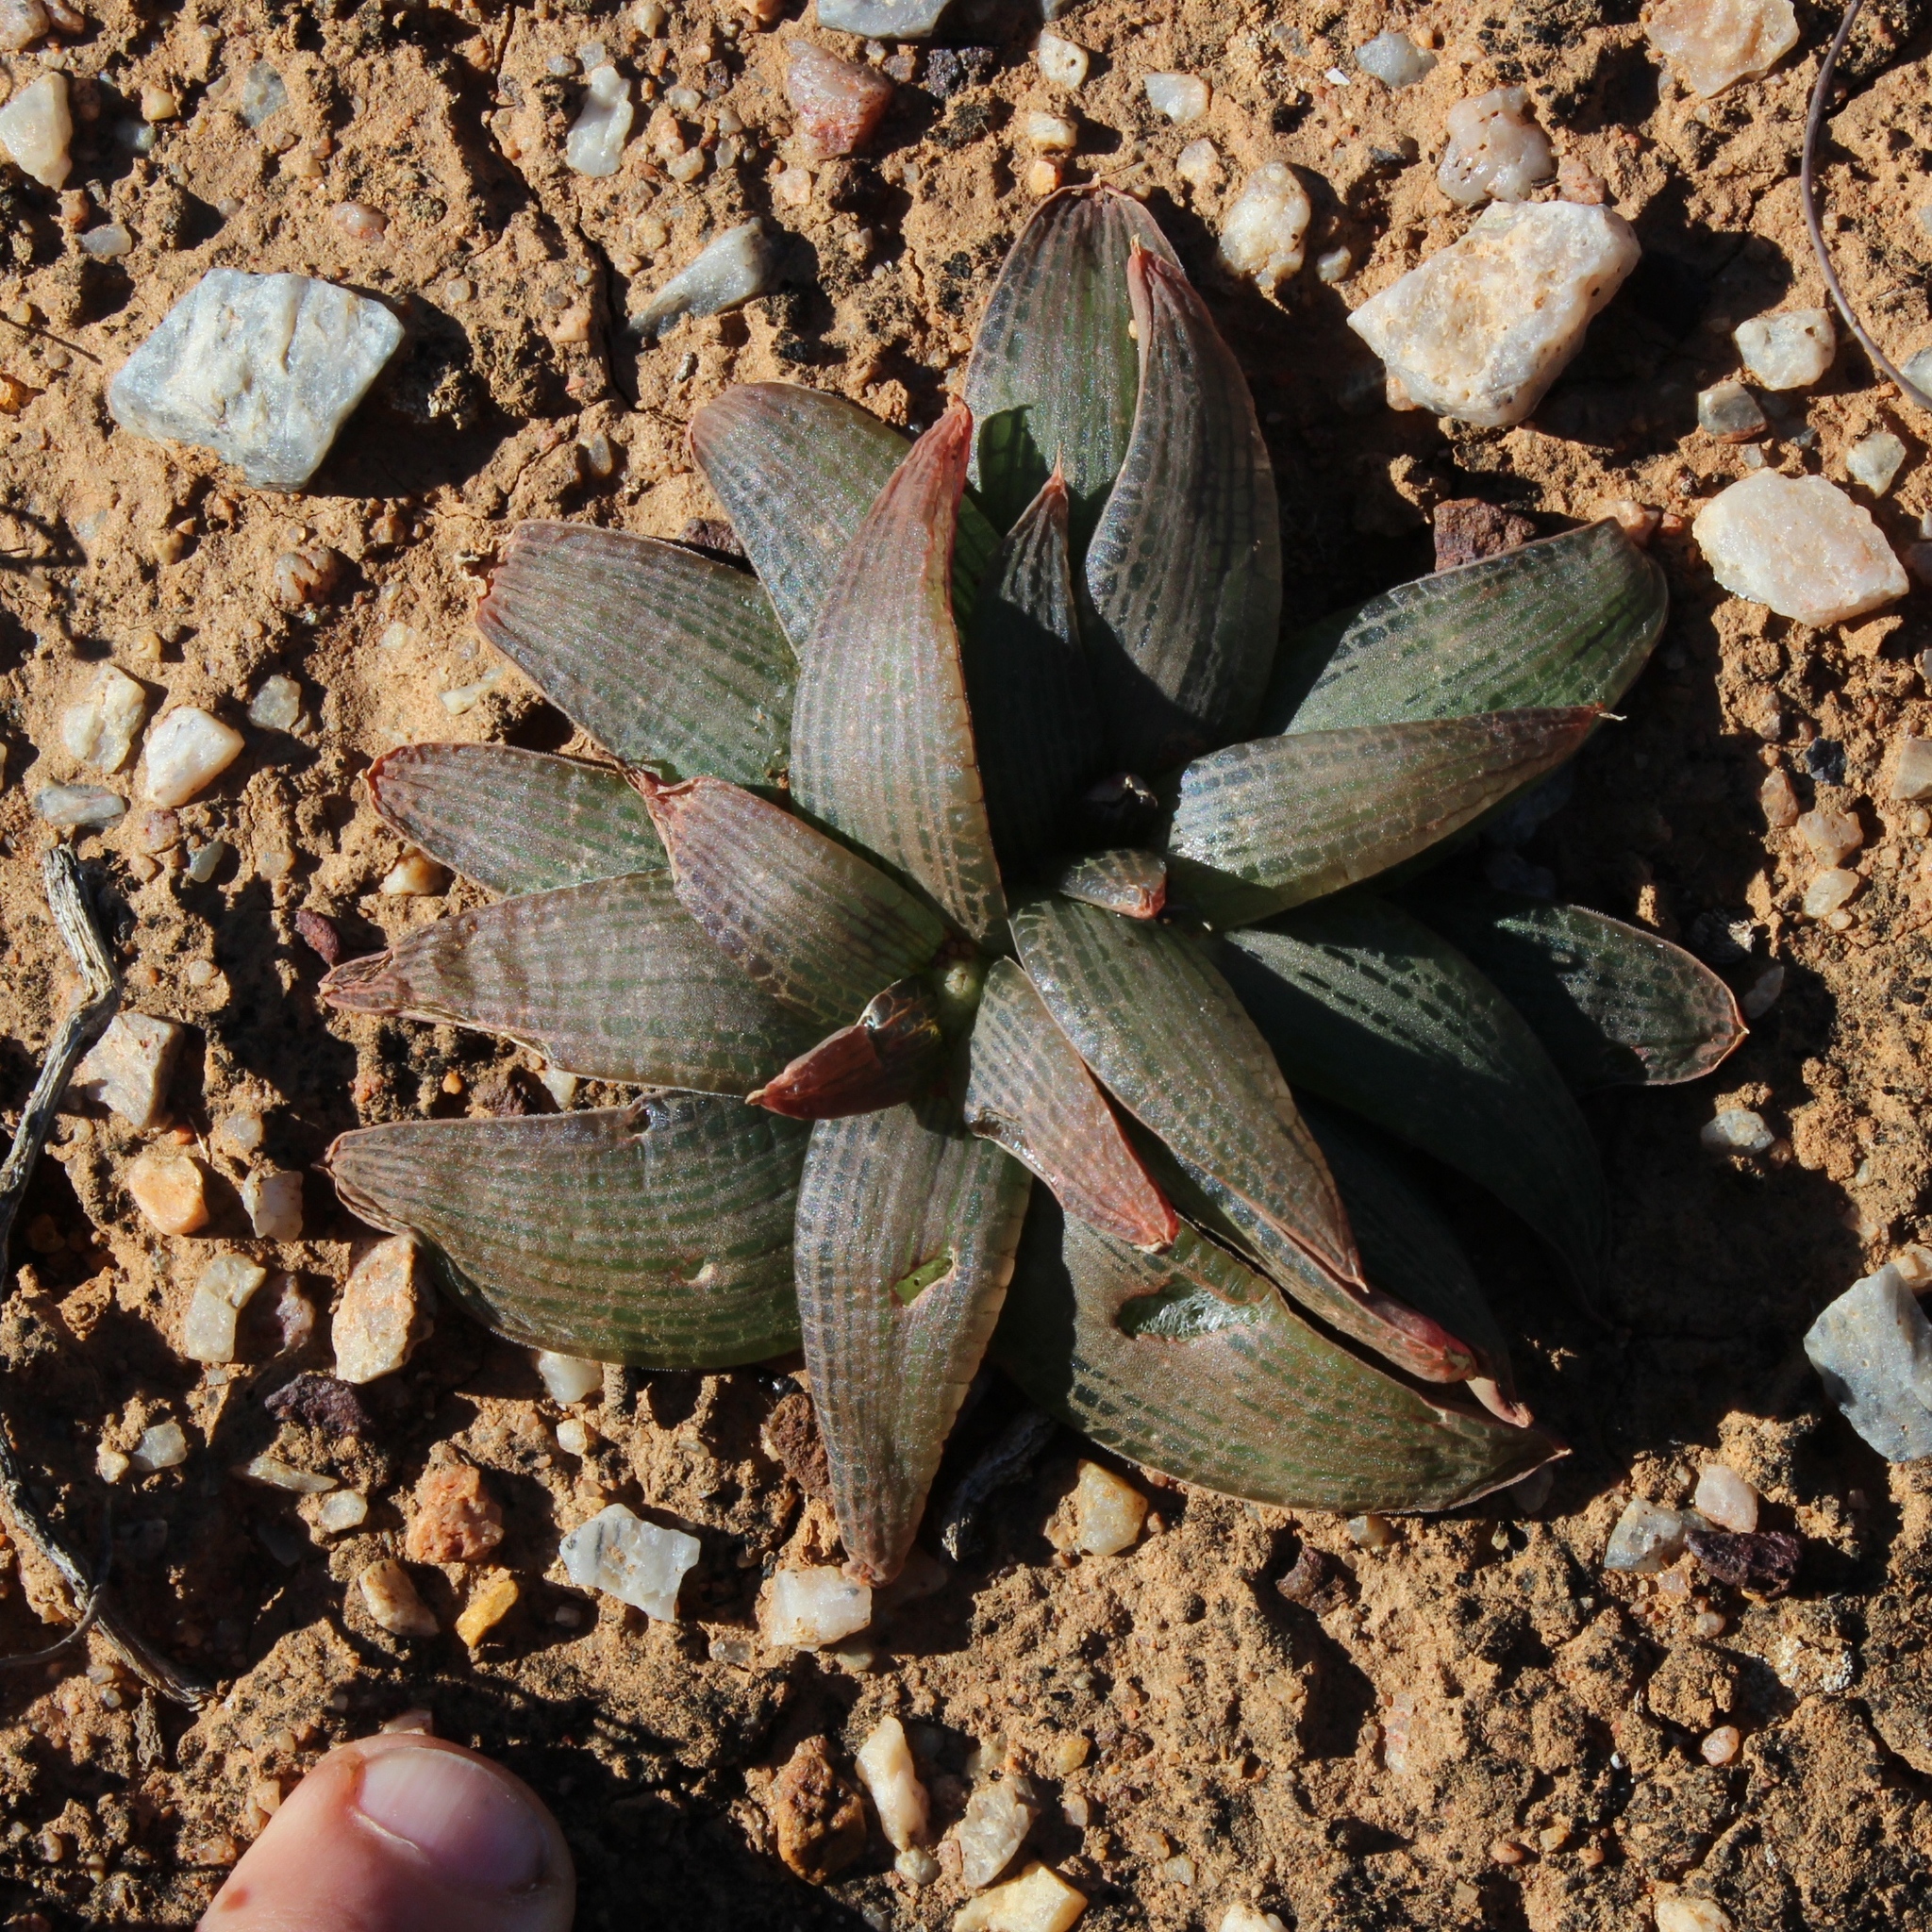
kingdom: Plantae
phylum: Tracheophyta
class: Liliopsida
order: Asparagales
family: Asphodelaceae
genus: Bulbine
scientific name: Bulbine fallax
